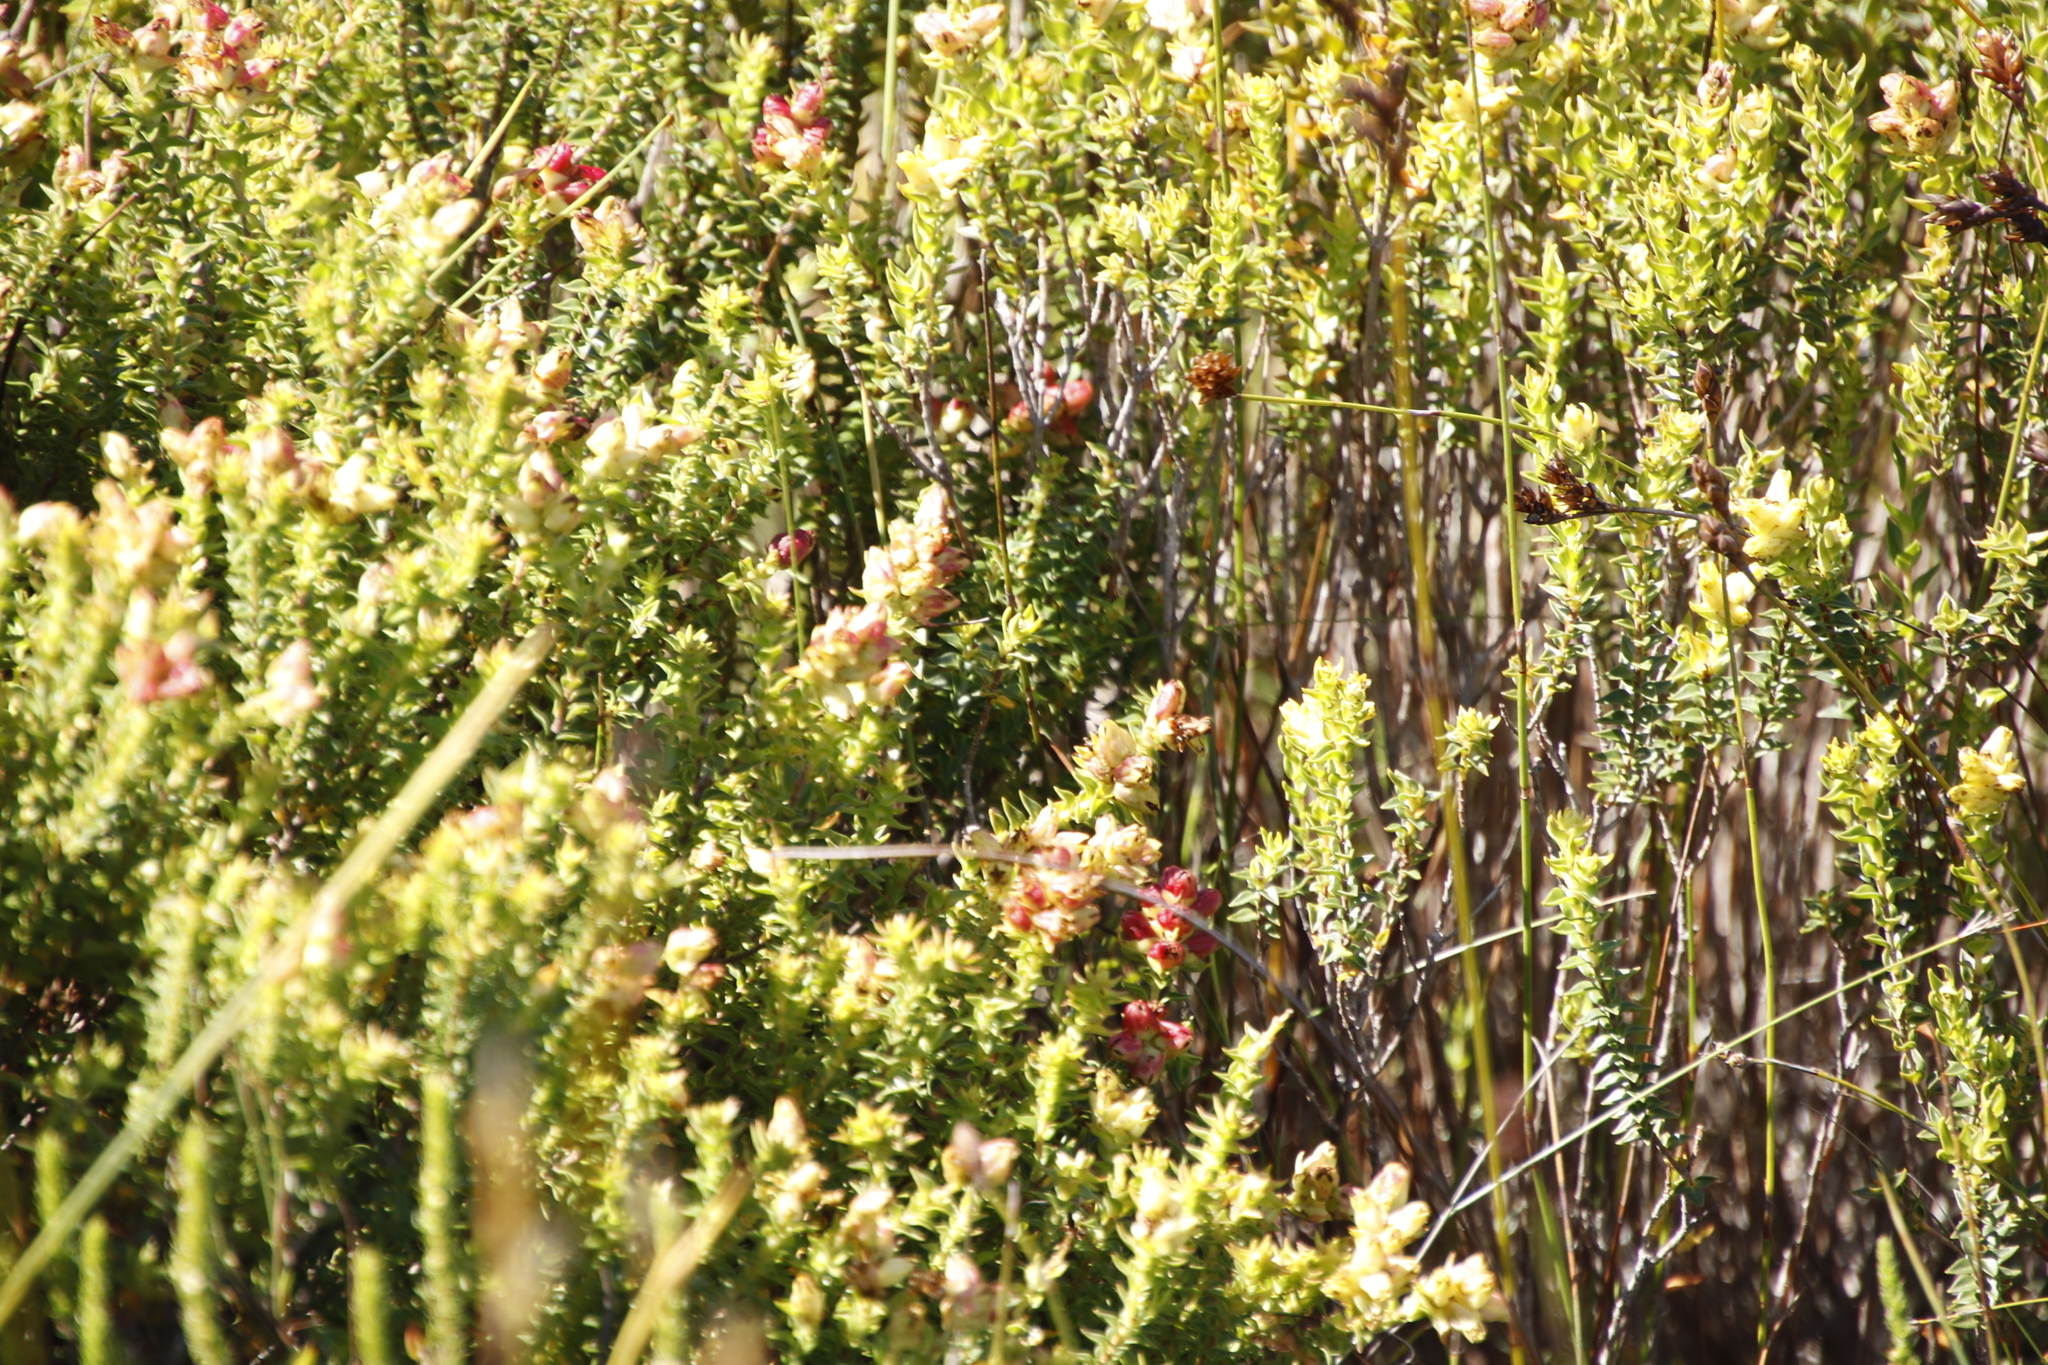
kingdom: Plantae
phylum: Tracheophyta
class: Magnoliopsida
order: Myrtales
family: Penaeaceae
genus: Penaea
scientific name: Penaea mucronata
